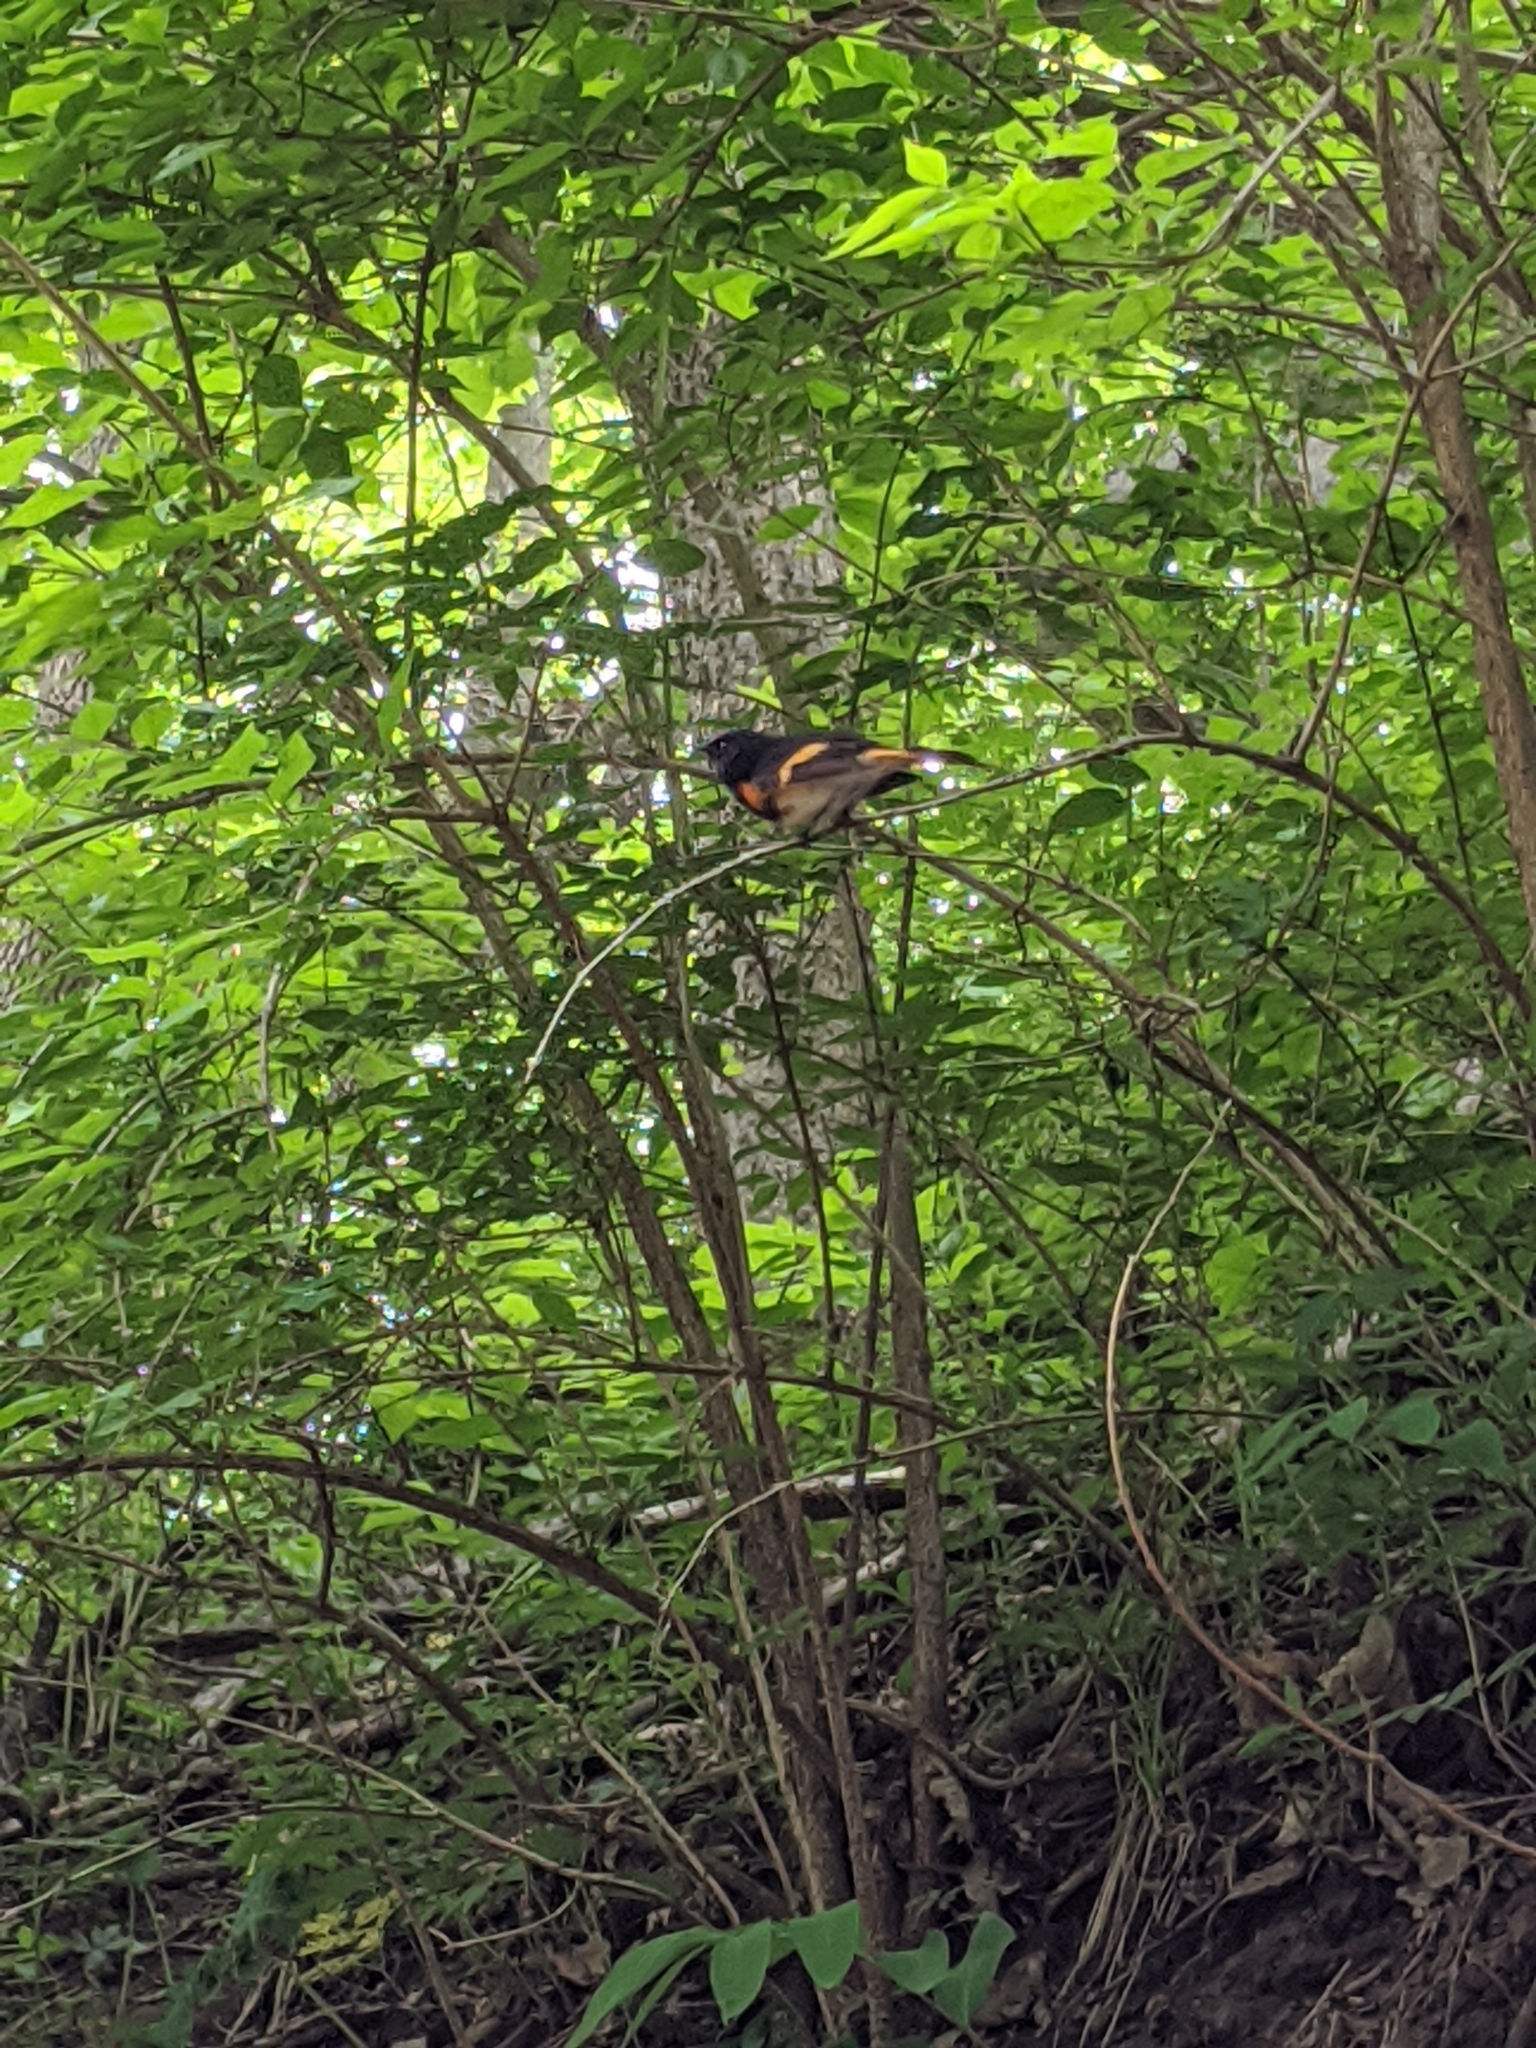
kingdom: Animalia
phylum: Chordata
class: Aves
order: Passeriformes
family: Parulidae
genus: Setophaga
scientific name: Setophaga ruticilla
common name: American redstart
